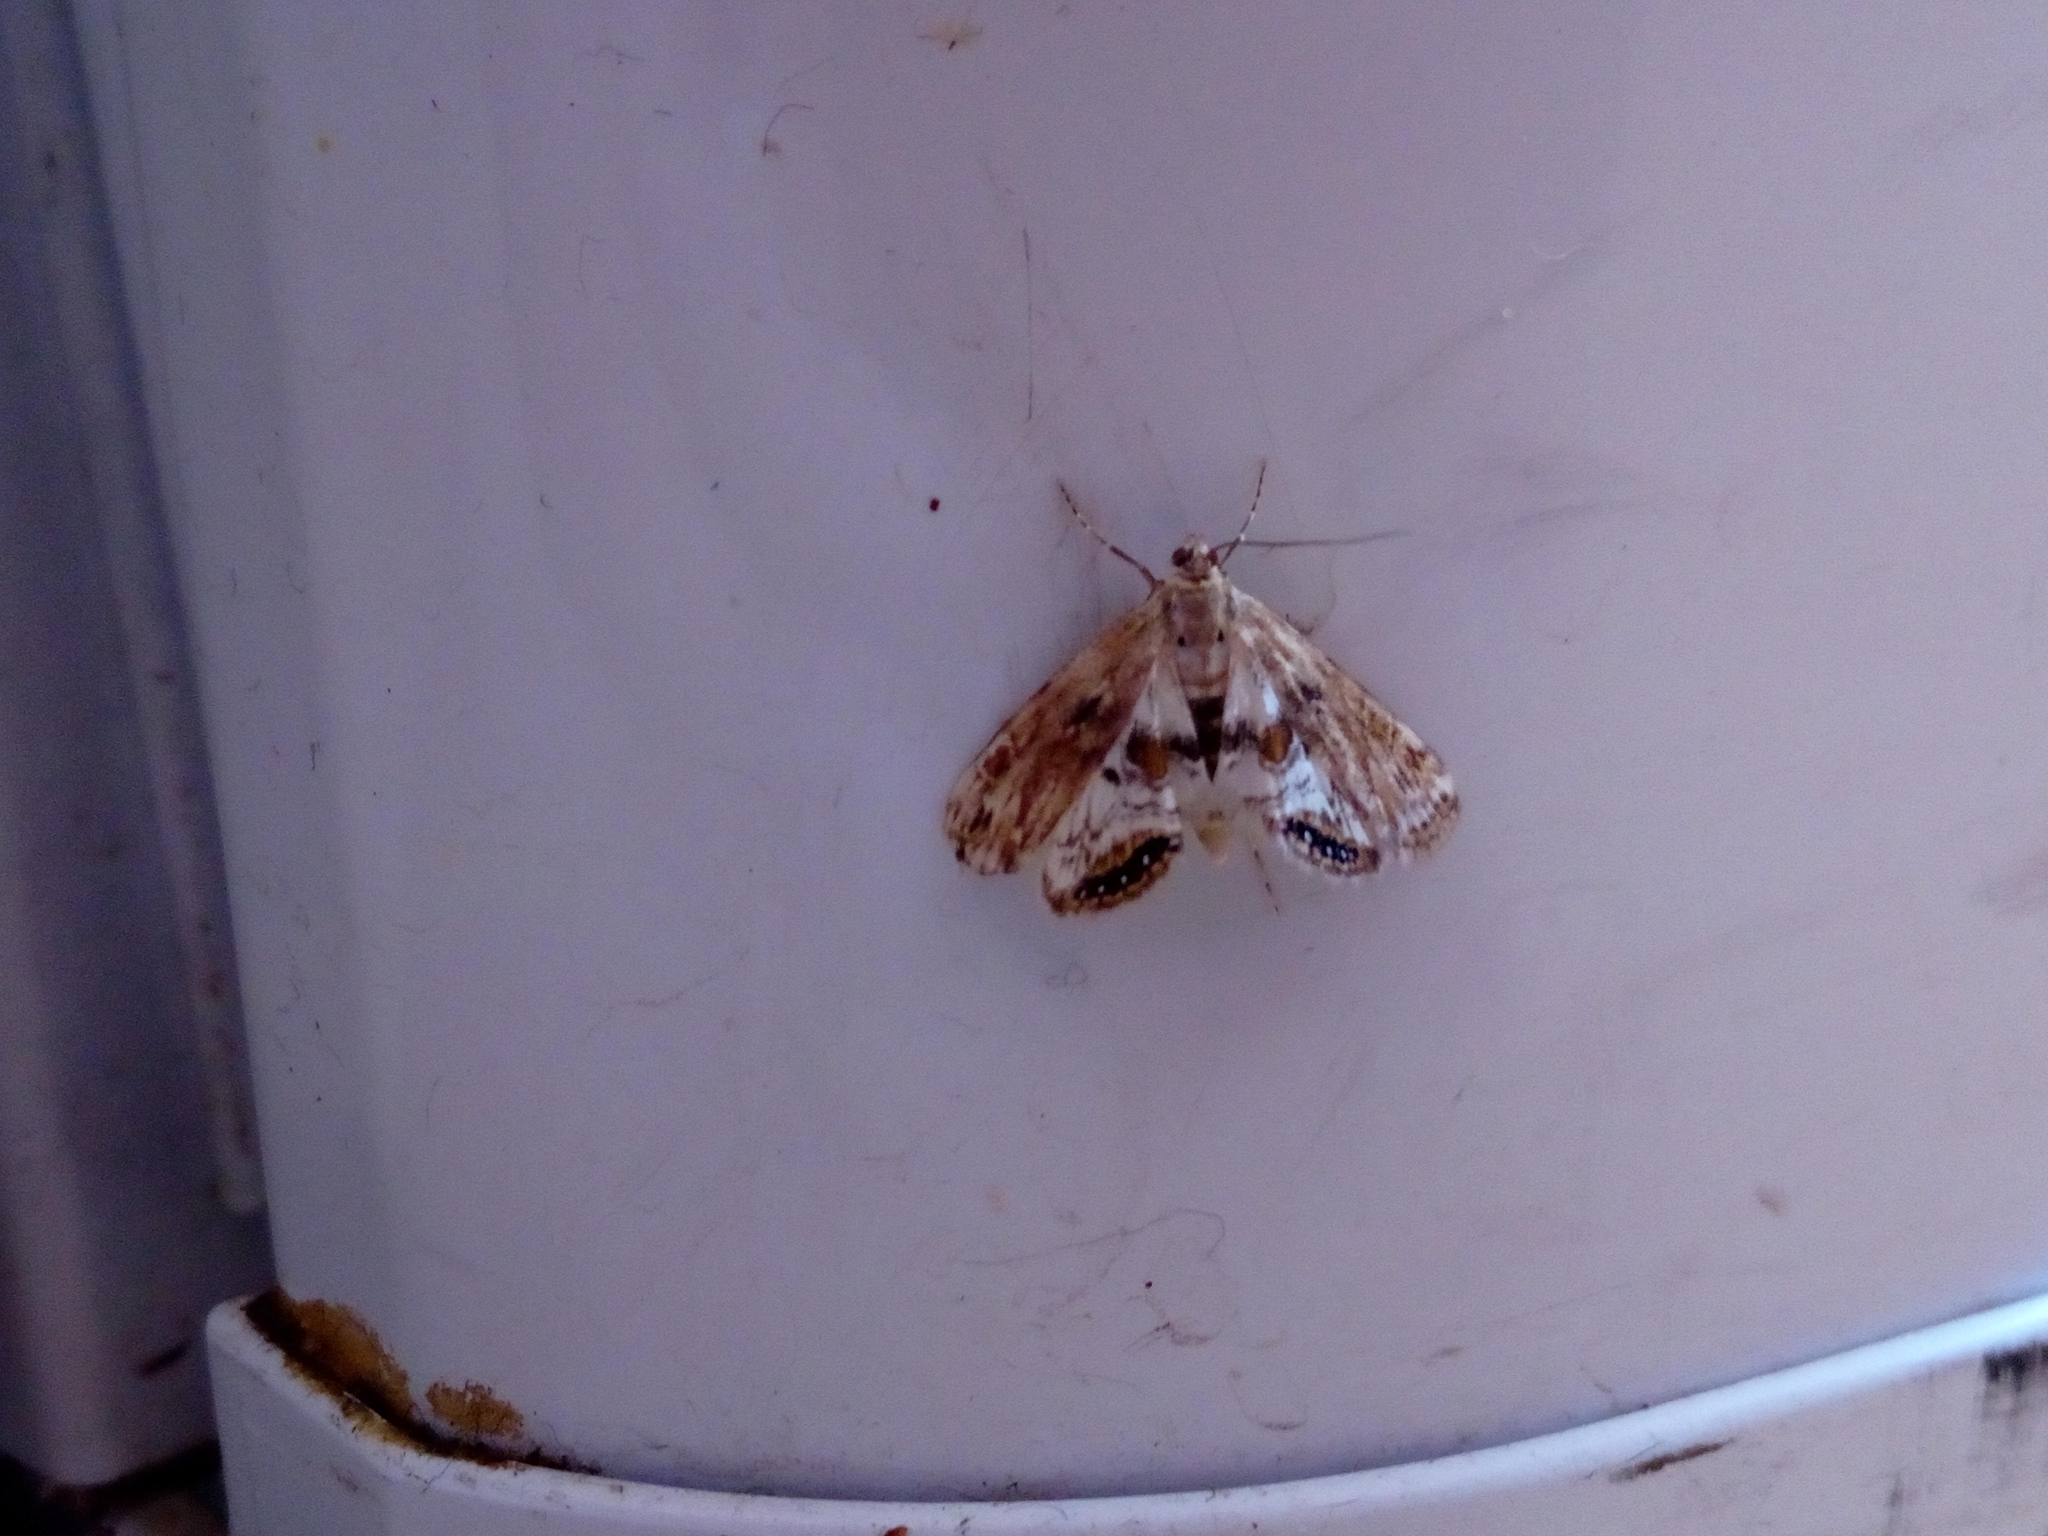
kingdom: Animalia
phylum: Arthropoda
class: Insecta
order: Lepidoptera
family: Crambidae
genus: Cataclysta
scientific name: Cataclysta lemnata
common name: Small china-mark
